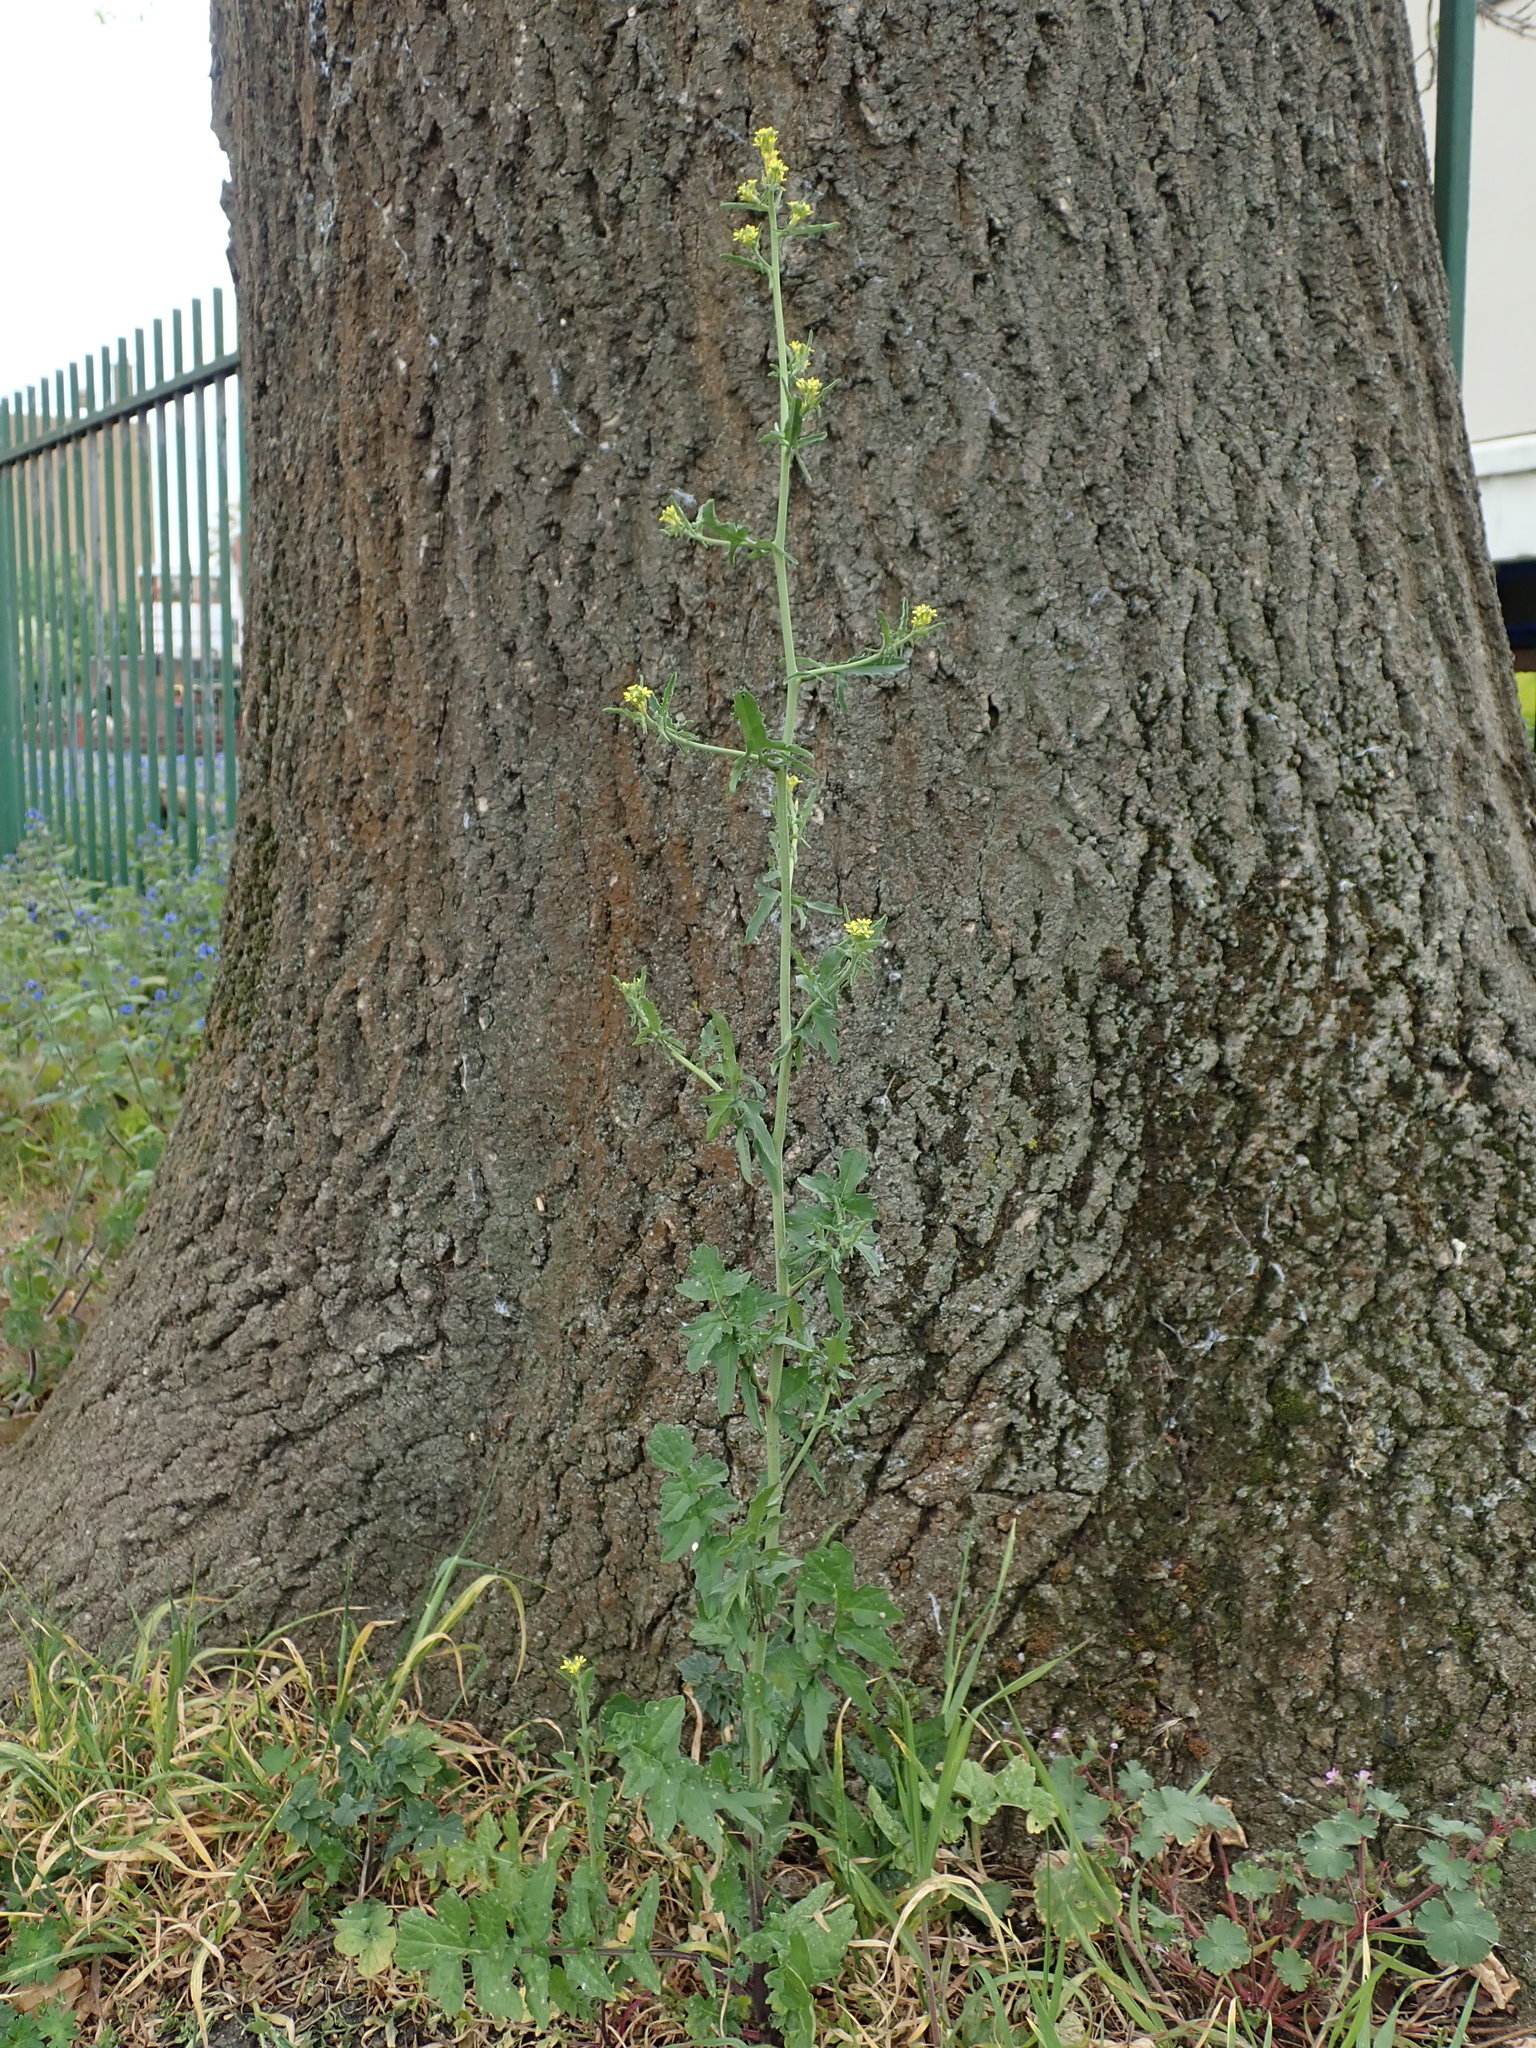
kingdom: Plantae
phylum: Tracheophyta
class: Magnoliopsida
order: Brassicales
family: Brassicaceae
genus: Sisymbrium
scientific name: Sisymbrium officinale
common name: Hedge mustard
